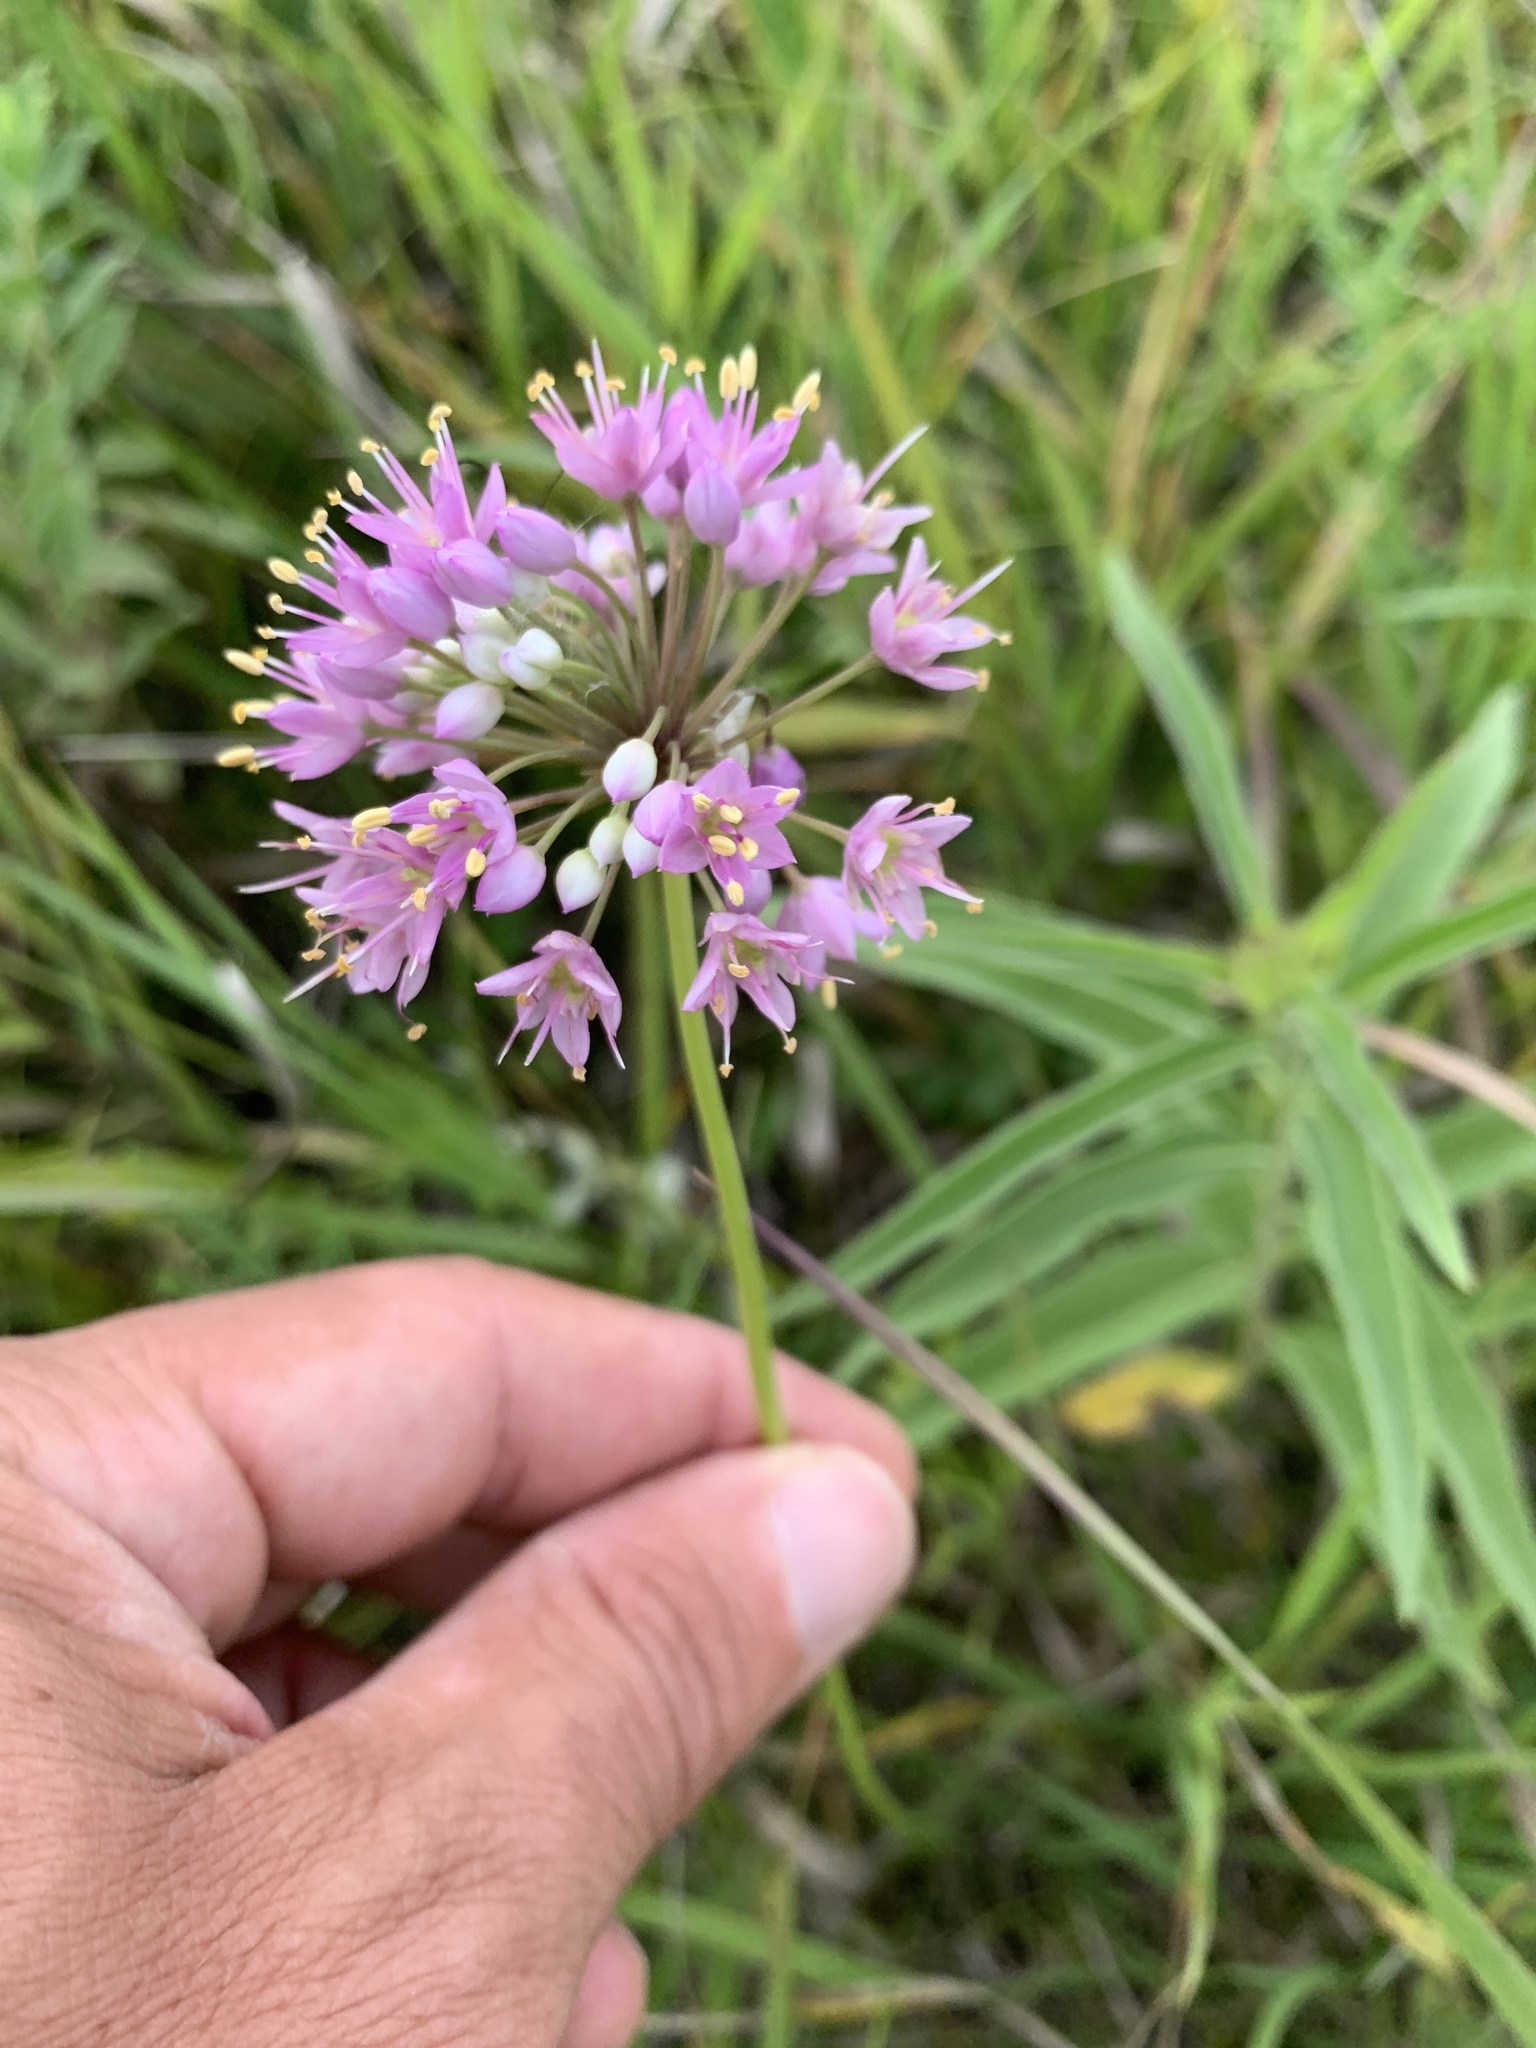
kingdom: Plantae
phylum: Tracheophyta
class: Liliopsida
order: Asparagales
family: Amaryllidaceae
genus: Allium
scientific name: Allium stellatum
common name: Autumn onion
